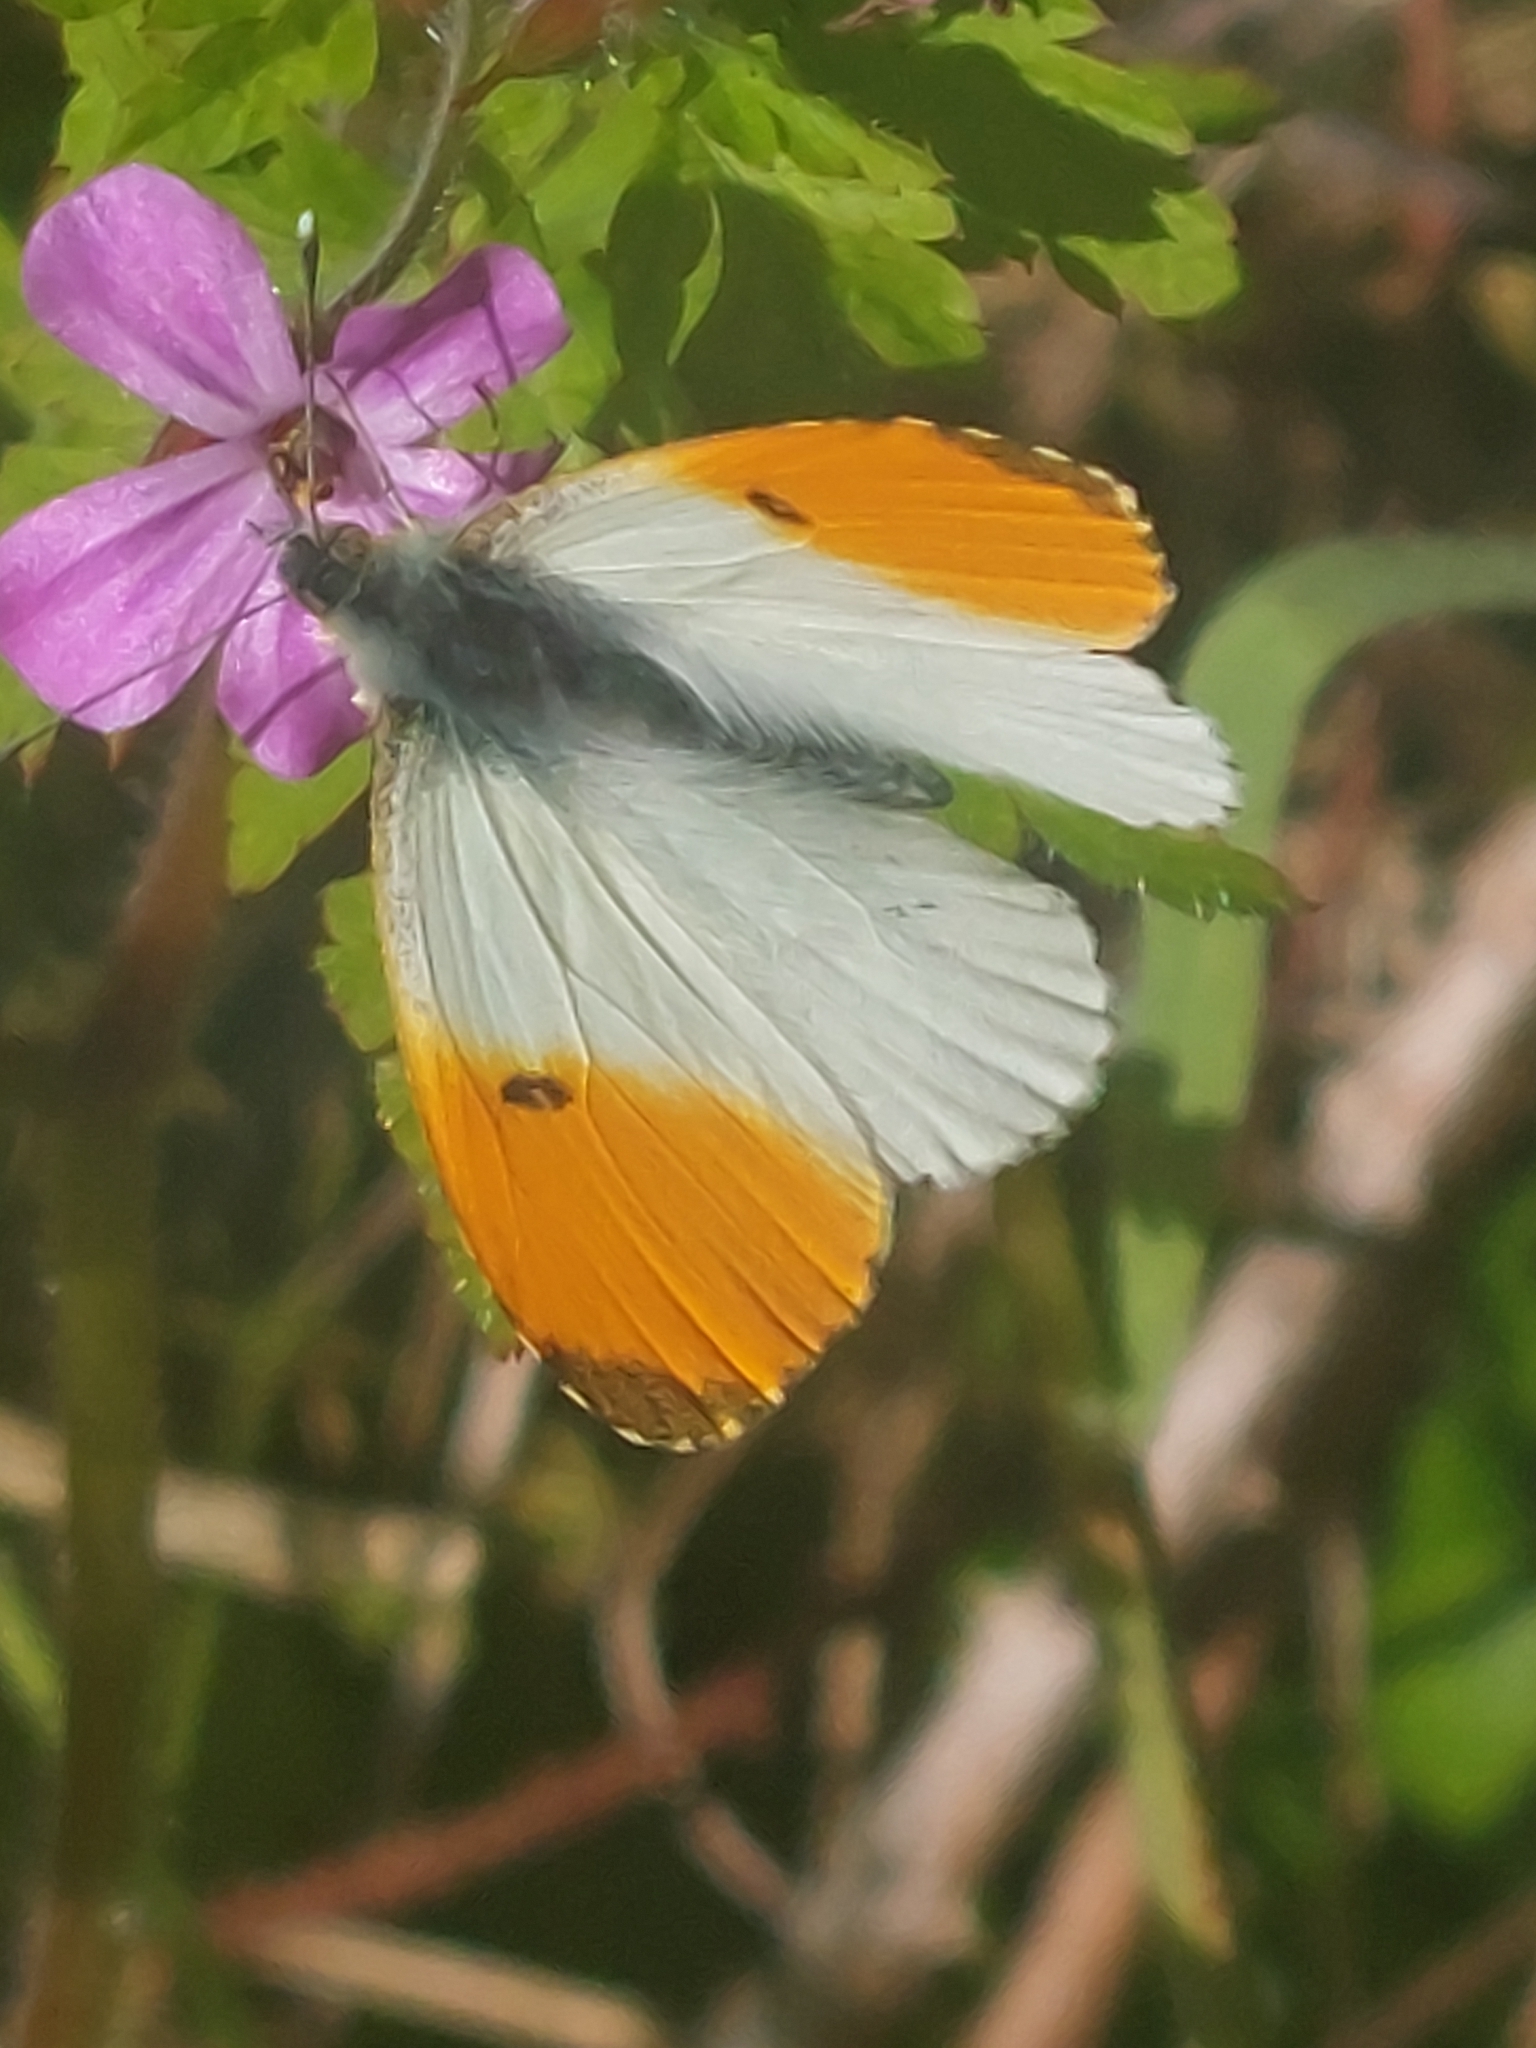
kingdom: Animalia
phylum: Arthropoda
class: Insecta
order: Lepidoptera
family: Pieridae
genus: Anthocharis
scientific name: Anthocharis cardamines
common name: Orange-tip
